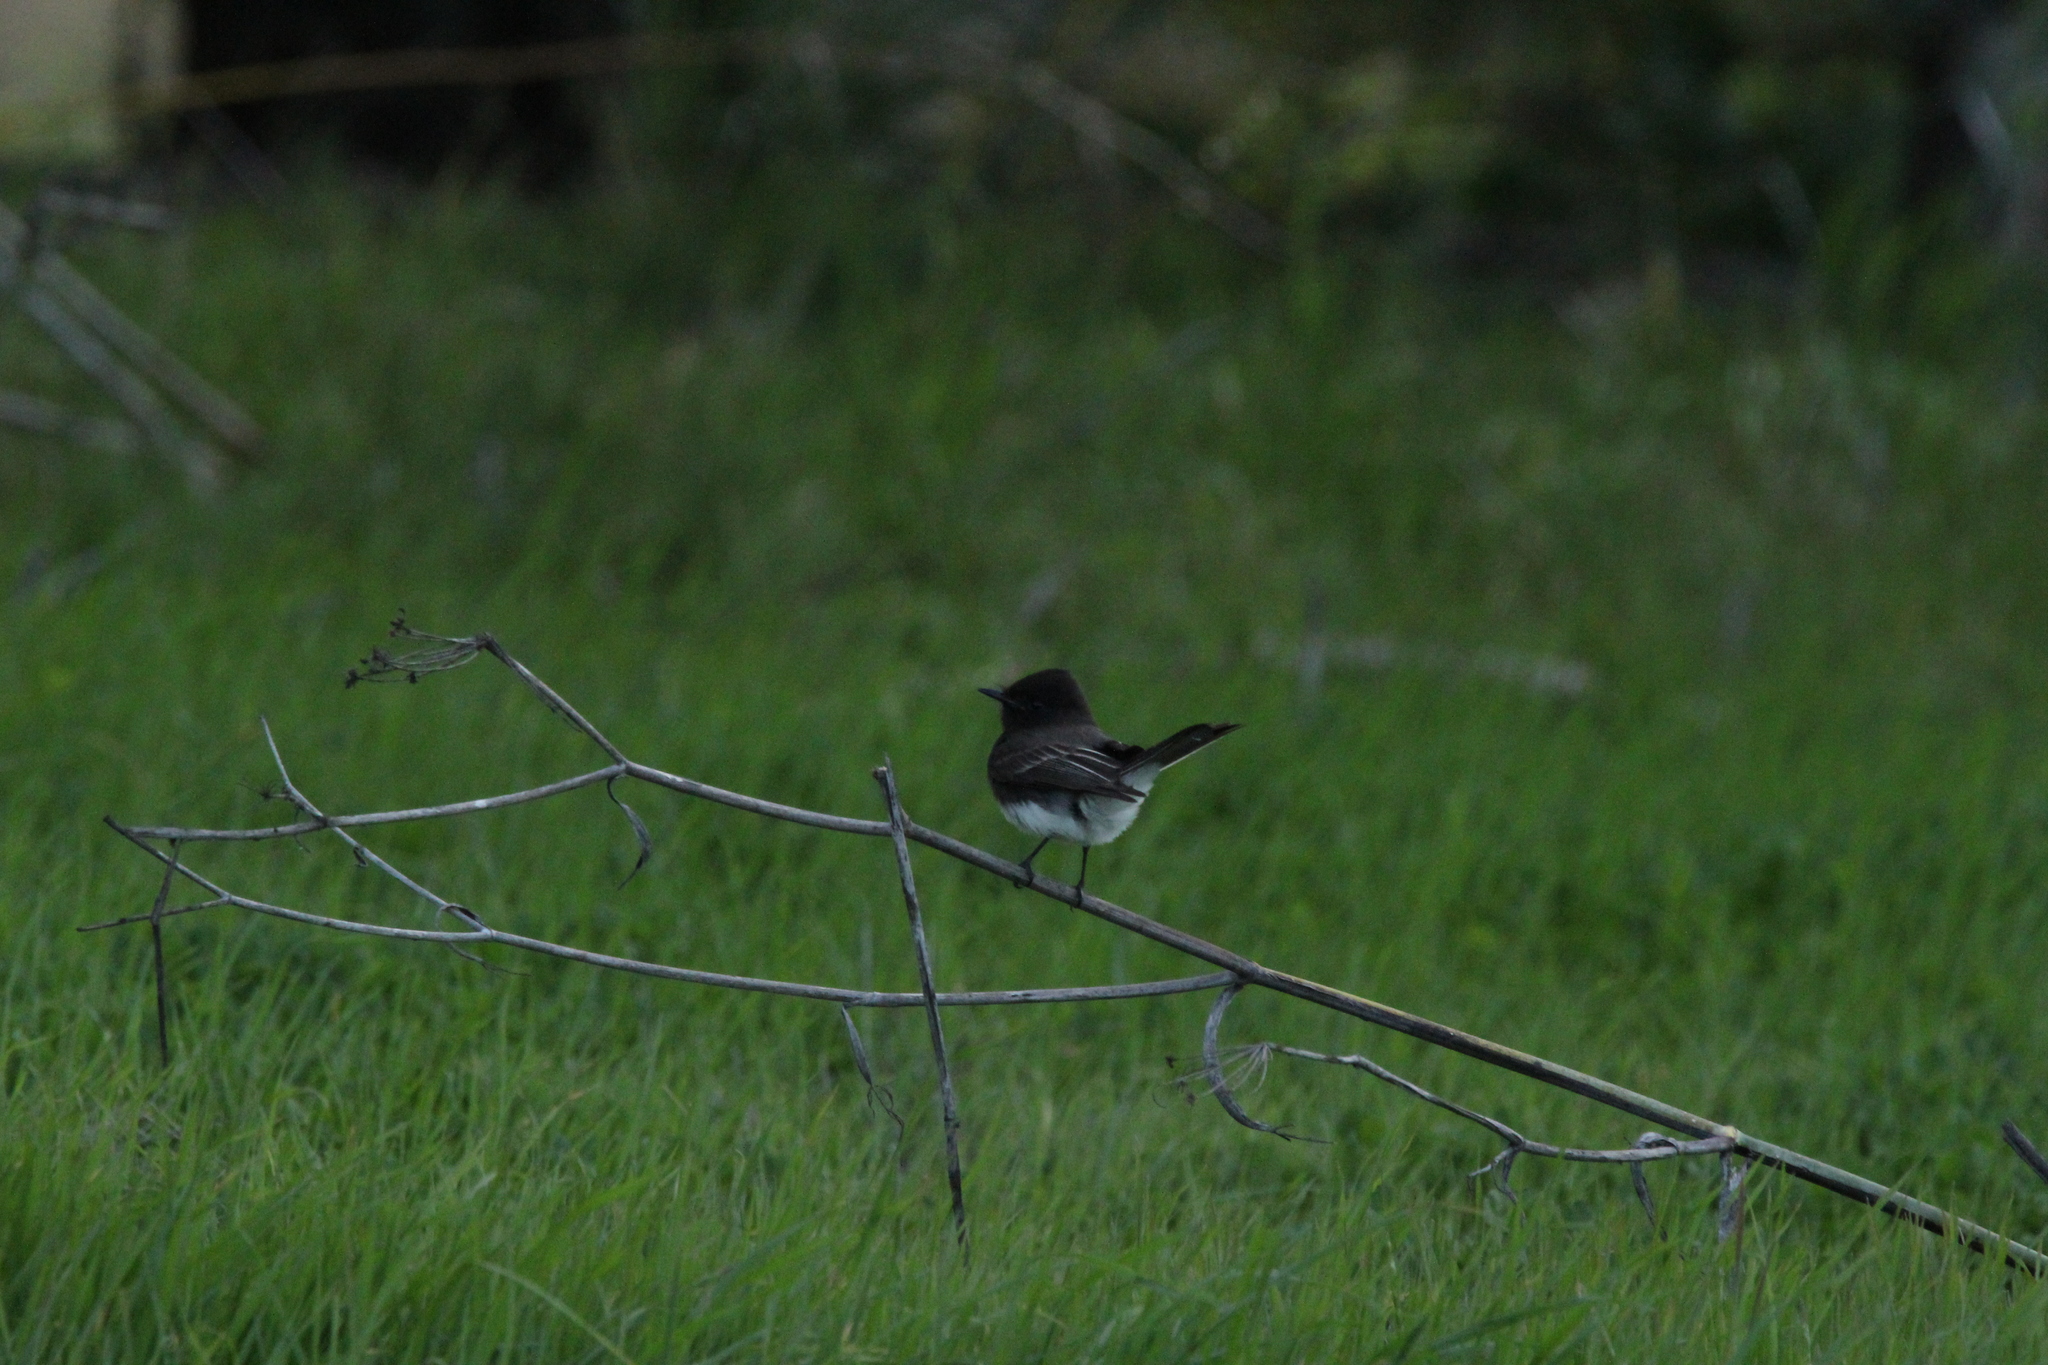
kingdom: Animalia
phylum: Chordata
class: Aves
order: Passeriformes
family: Tyrannidae
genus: Sayornis
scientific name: Sayornis nigricans
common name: Black phoebe
